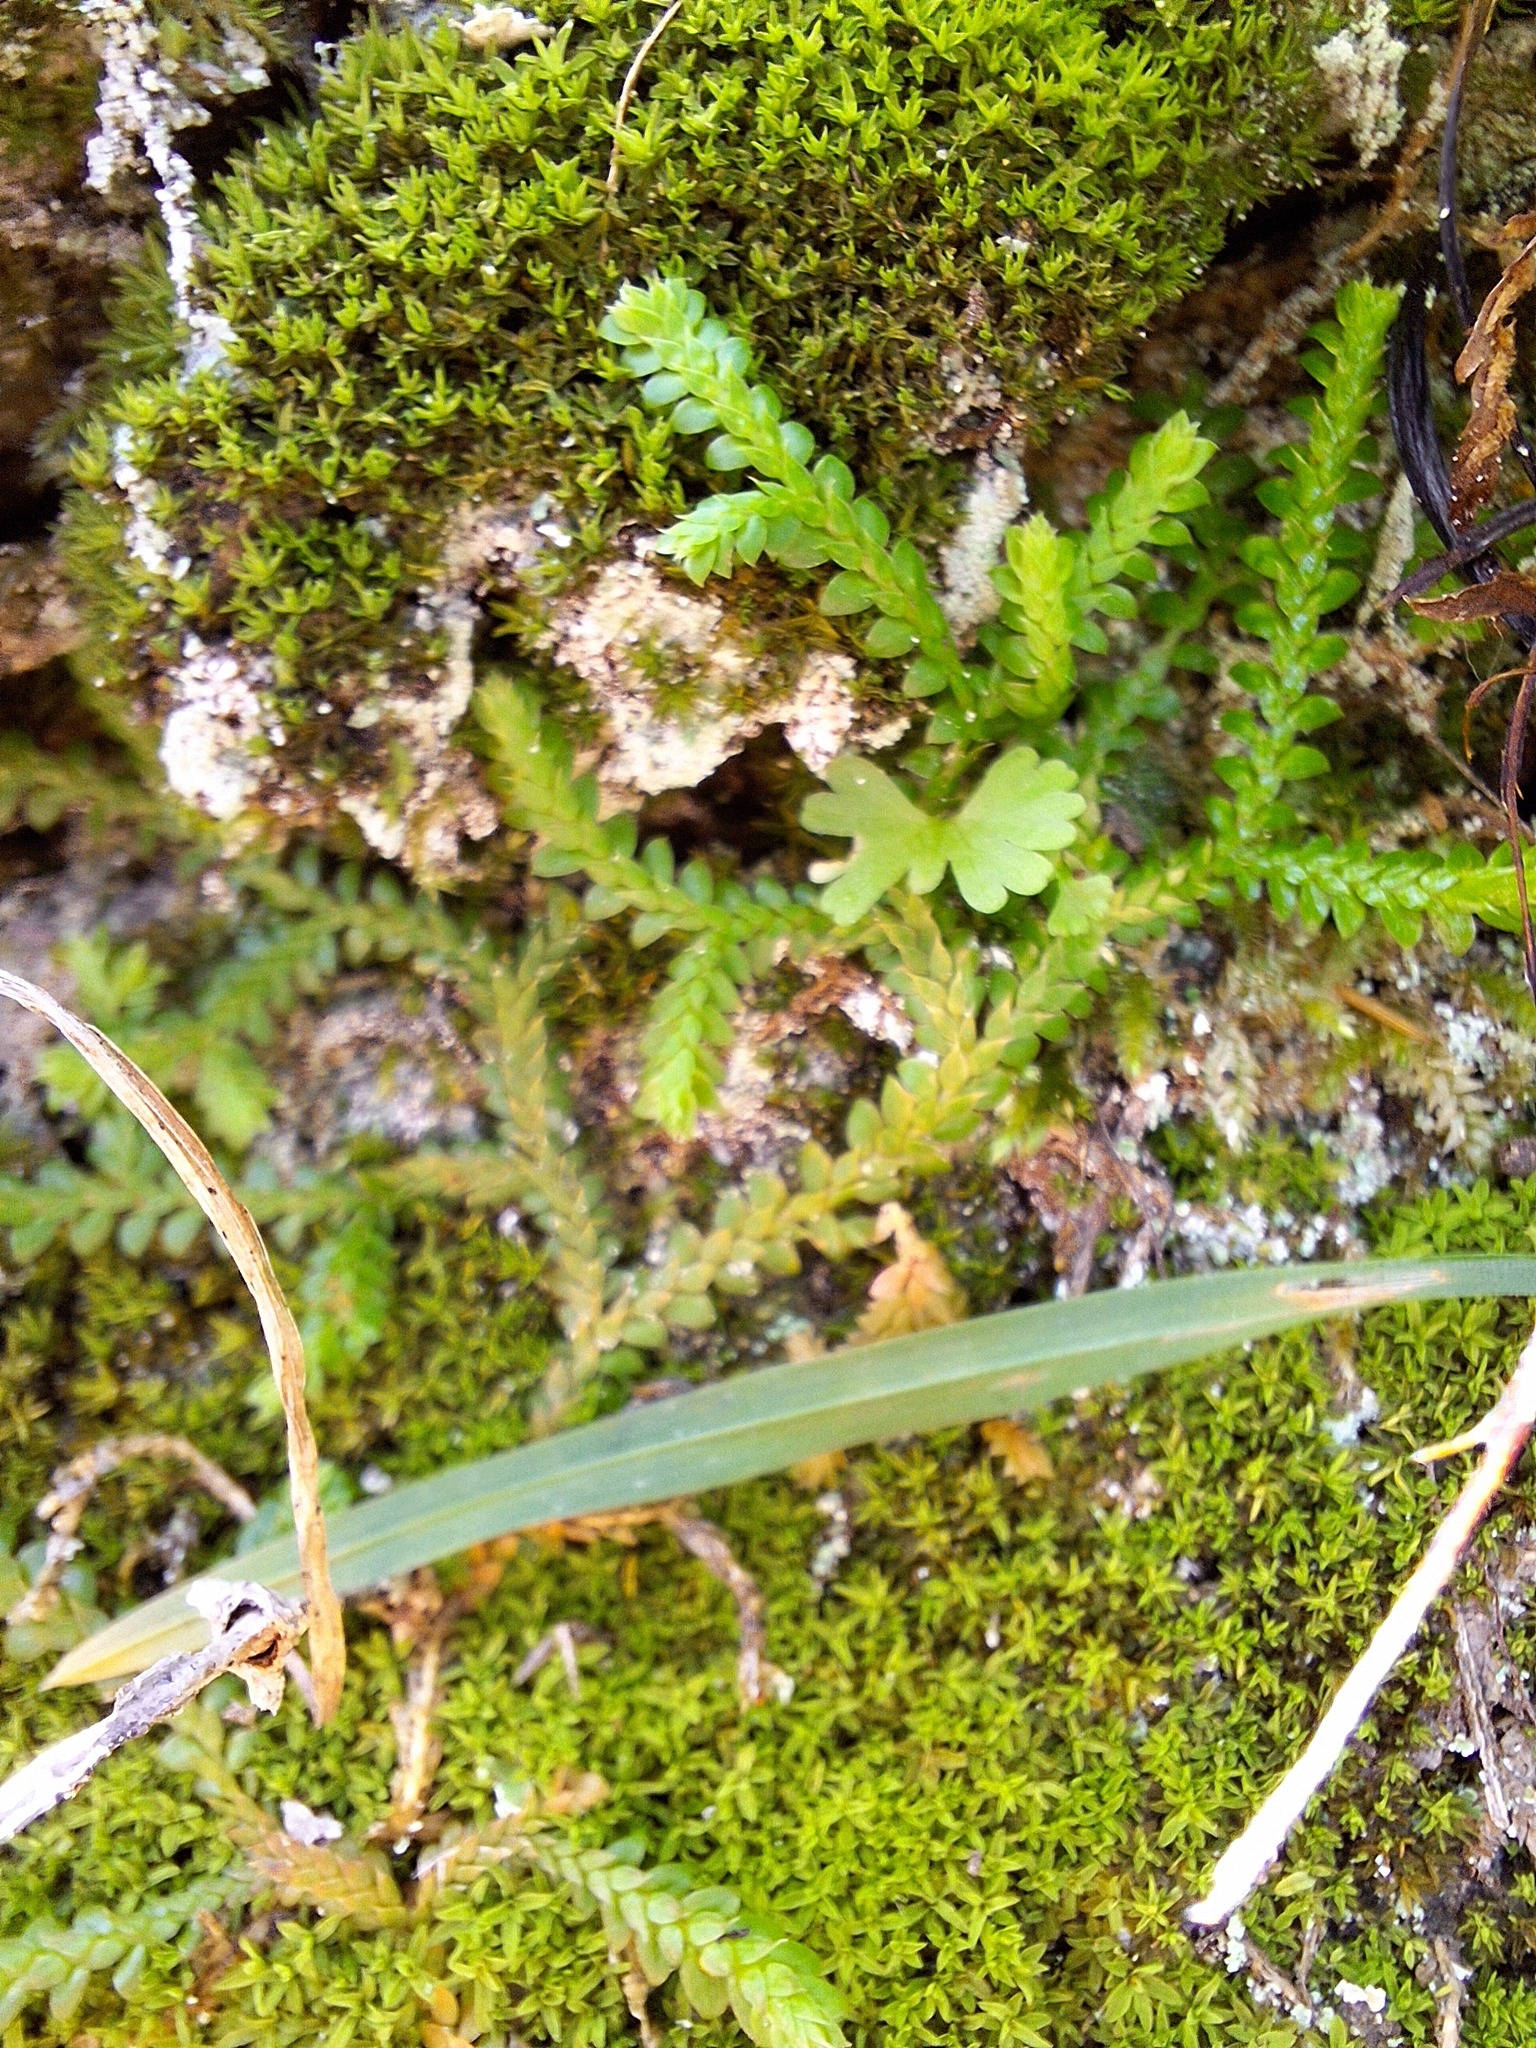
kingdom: Plantae
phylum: Tracheophyta
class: Lycopodiopsida
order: Selaginellales
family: Selaginellaceae
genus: Selaginella
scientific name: Selaginella denticulata
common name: Toothed-leaved clubmoss
